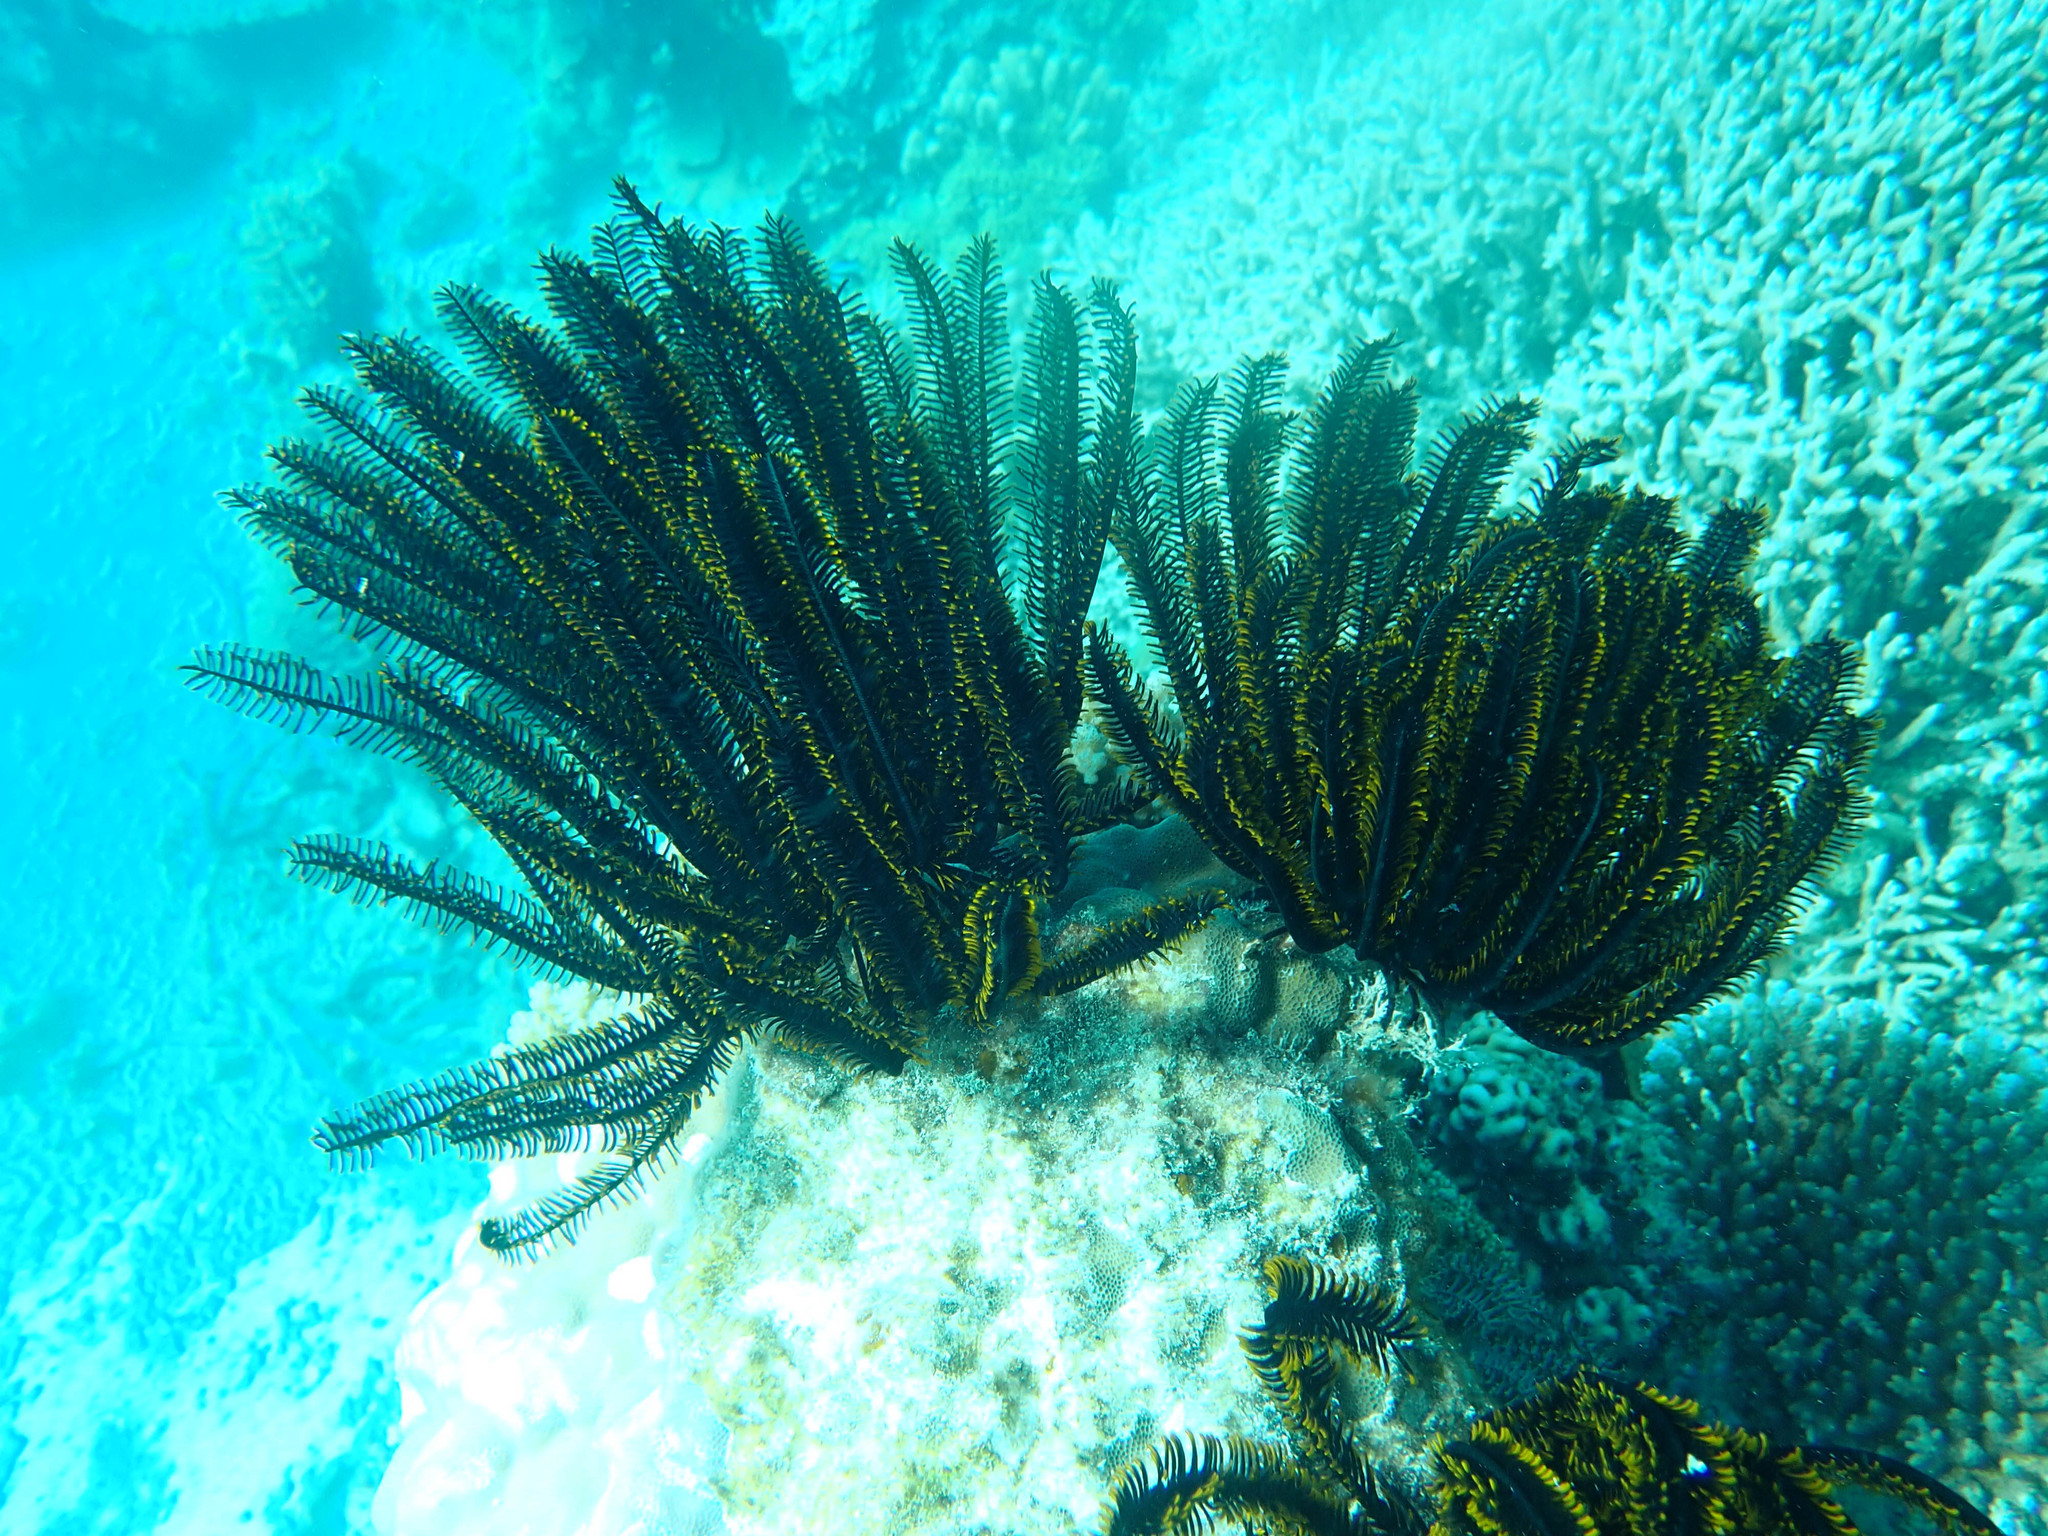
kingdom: Animalia
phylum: Echinodermata
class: Crinoidea
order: Comatulida
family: Comatulidae
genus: Anneissia
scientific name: Anneissia bennetti
